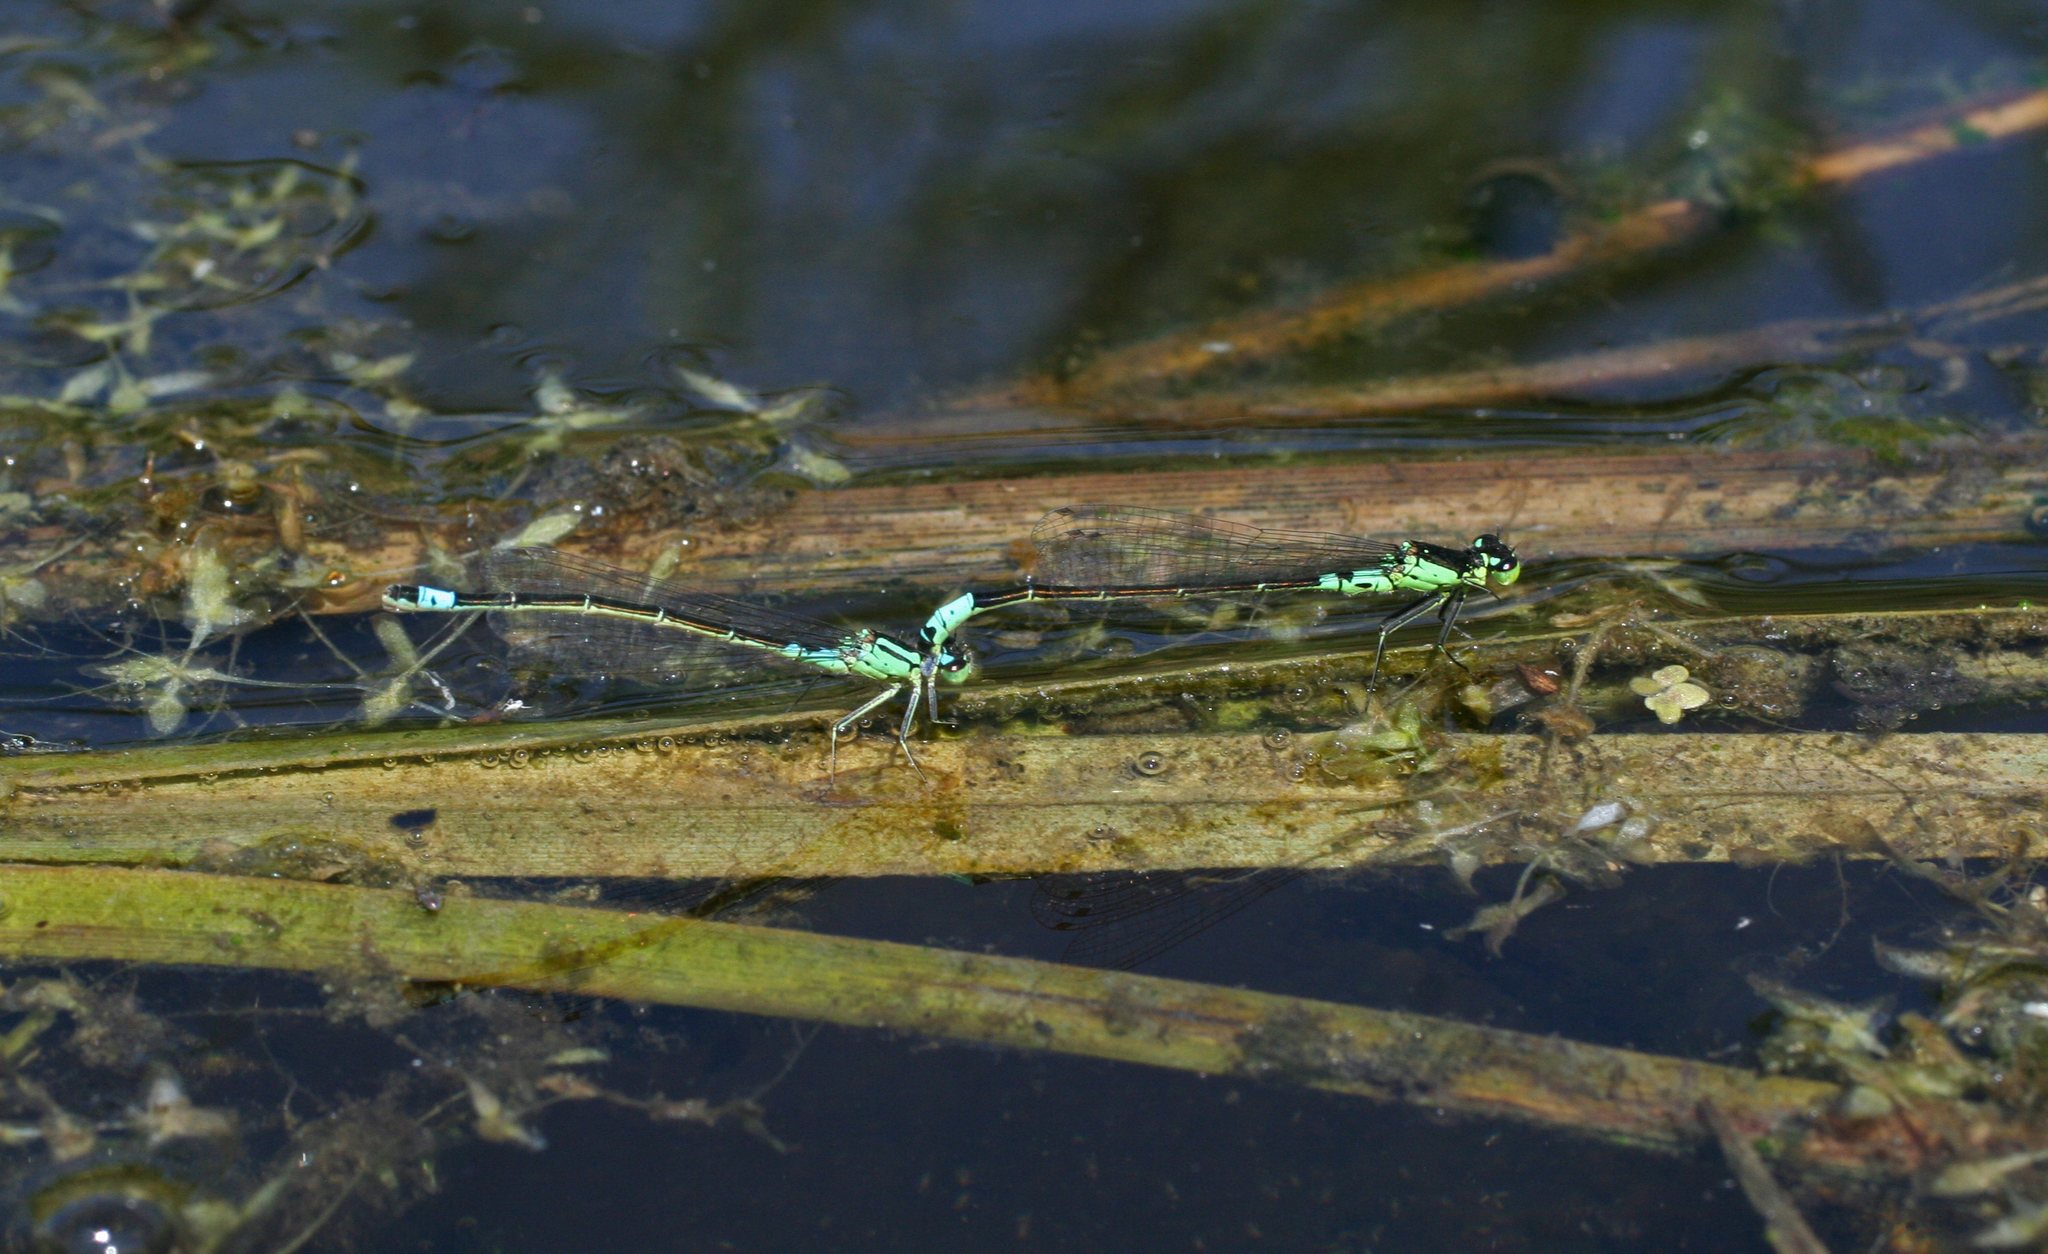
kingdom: Animalia
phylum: Arthropoda
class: Insecta
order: Odonata
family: Coenagrionidae
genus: Coenagrion
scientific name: Coenagrion armatum
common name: Dark bluet
